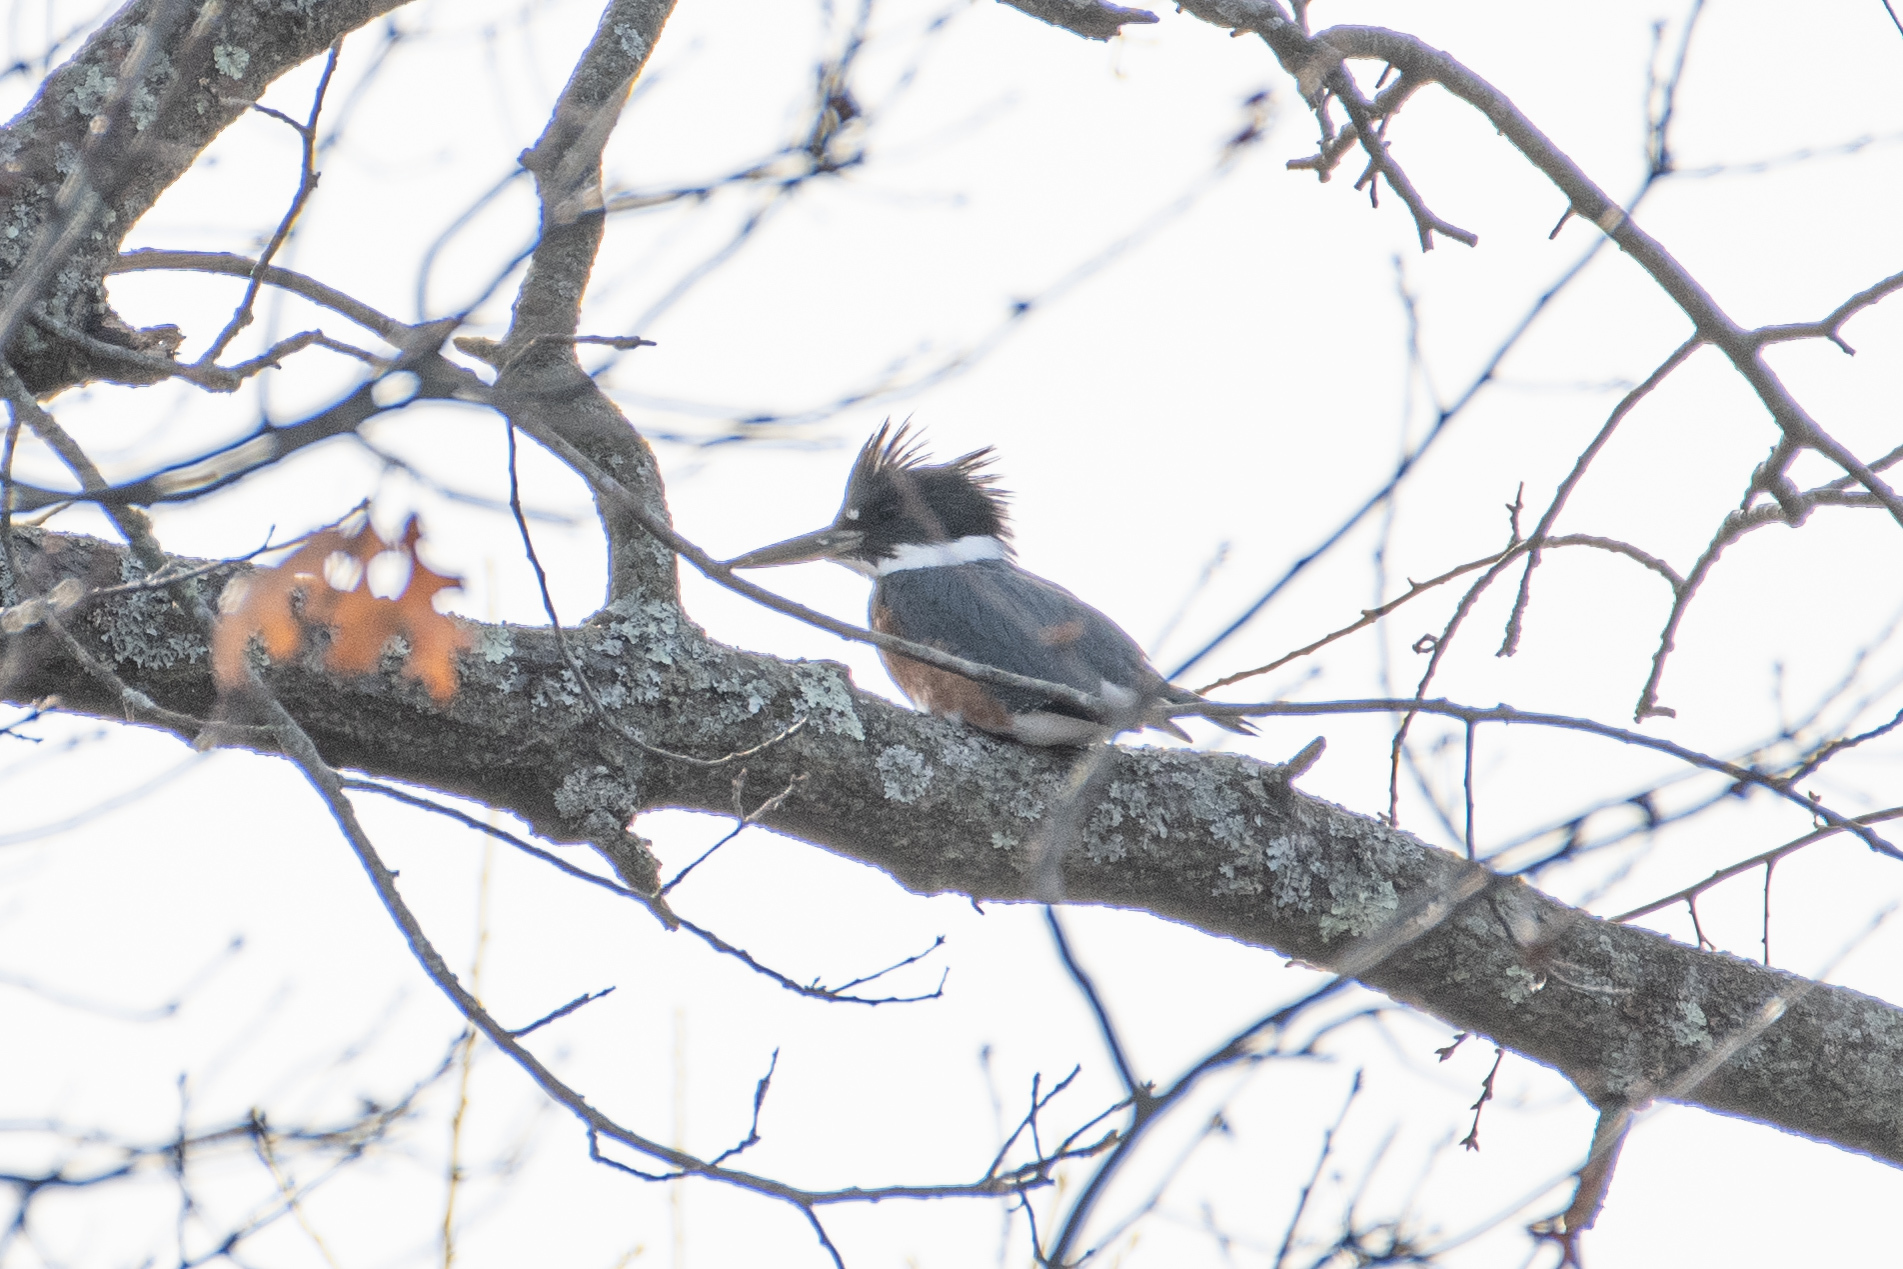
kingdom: Animalia
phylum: Chordata
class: Aves
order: Coraciiformes
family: Alcedinidae
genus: Megaceryle
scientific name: Megaceryle alcyon
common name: Belted kingfisher
